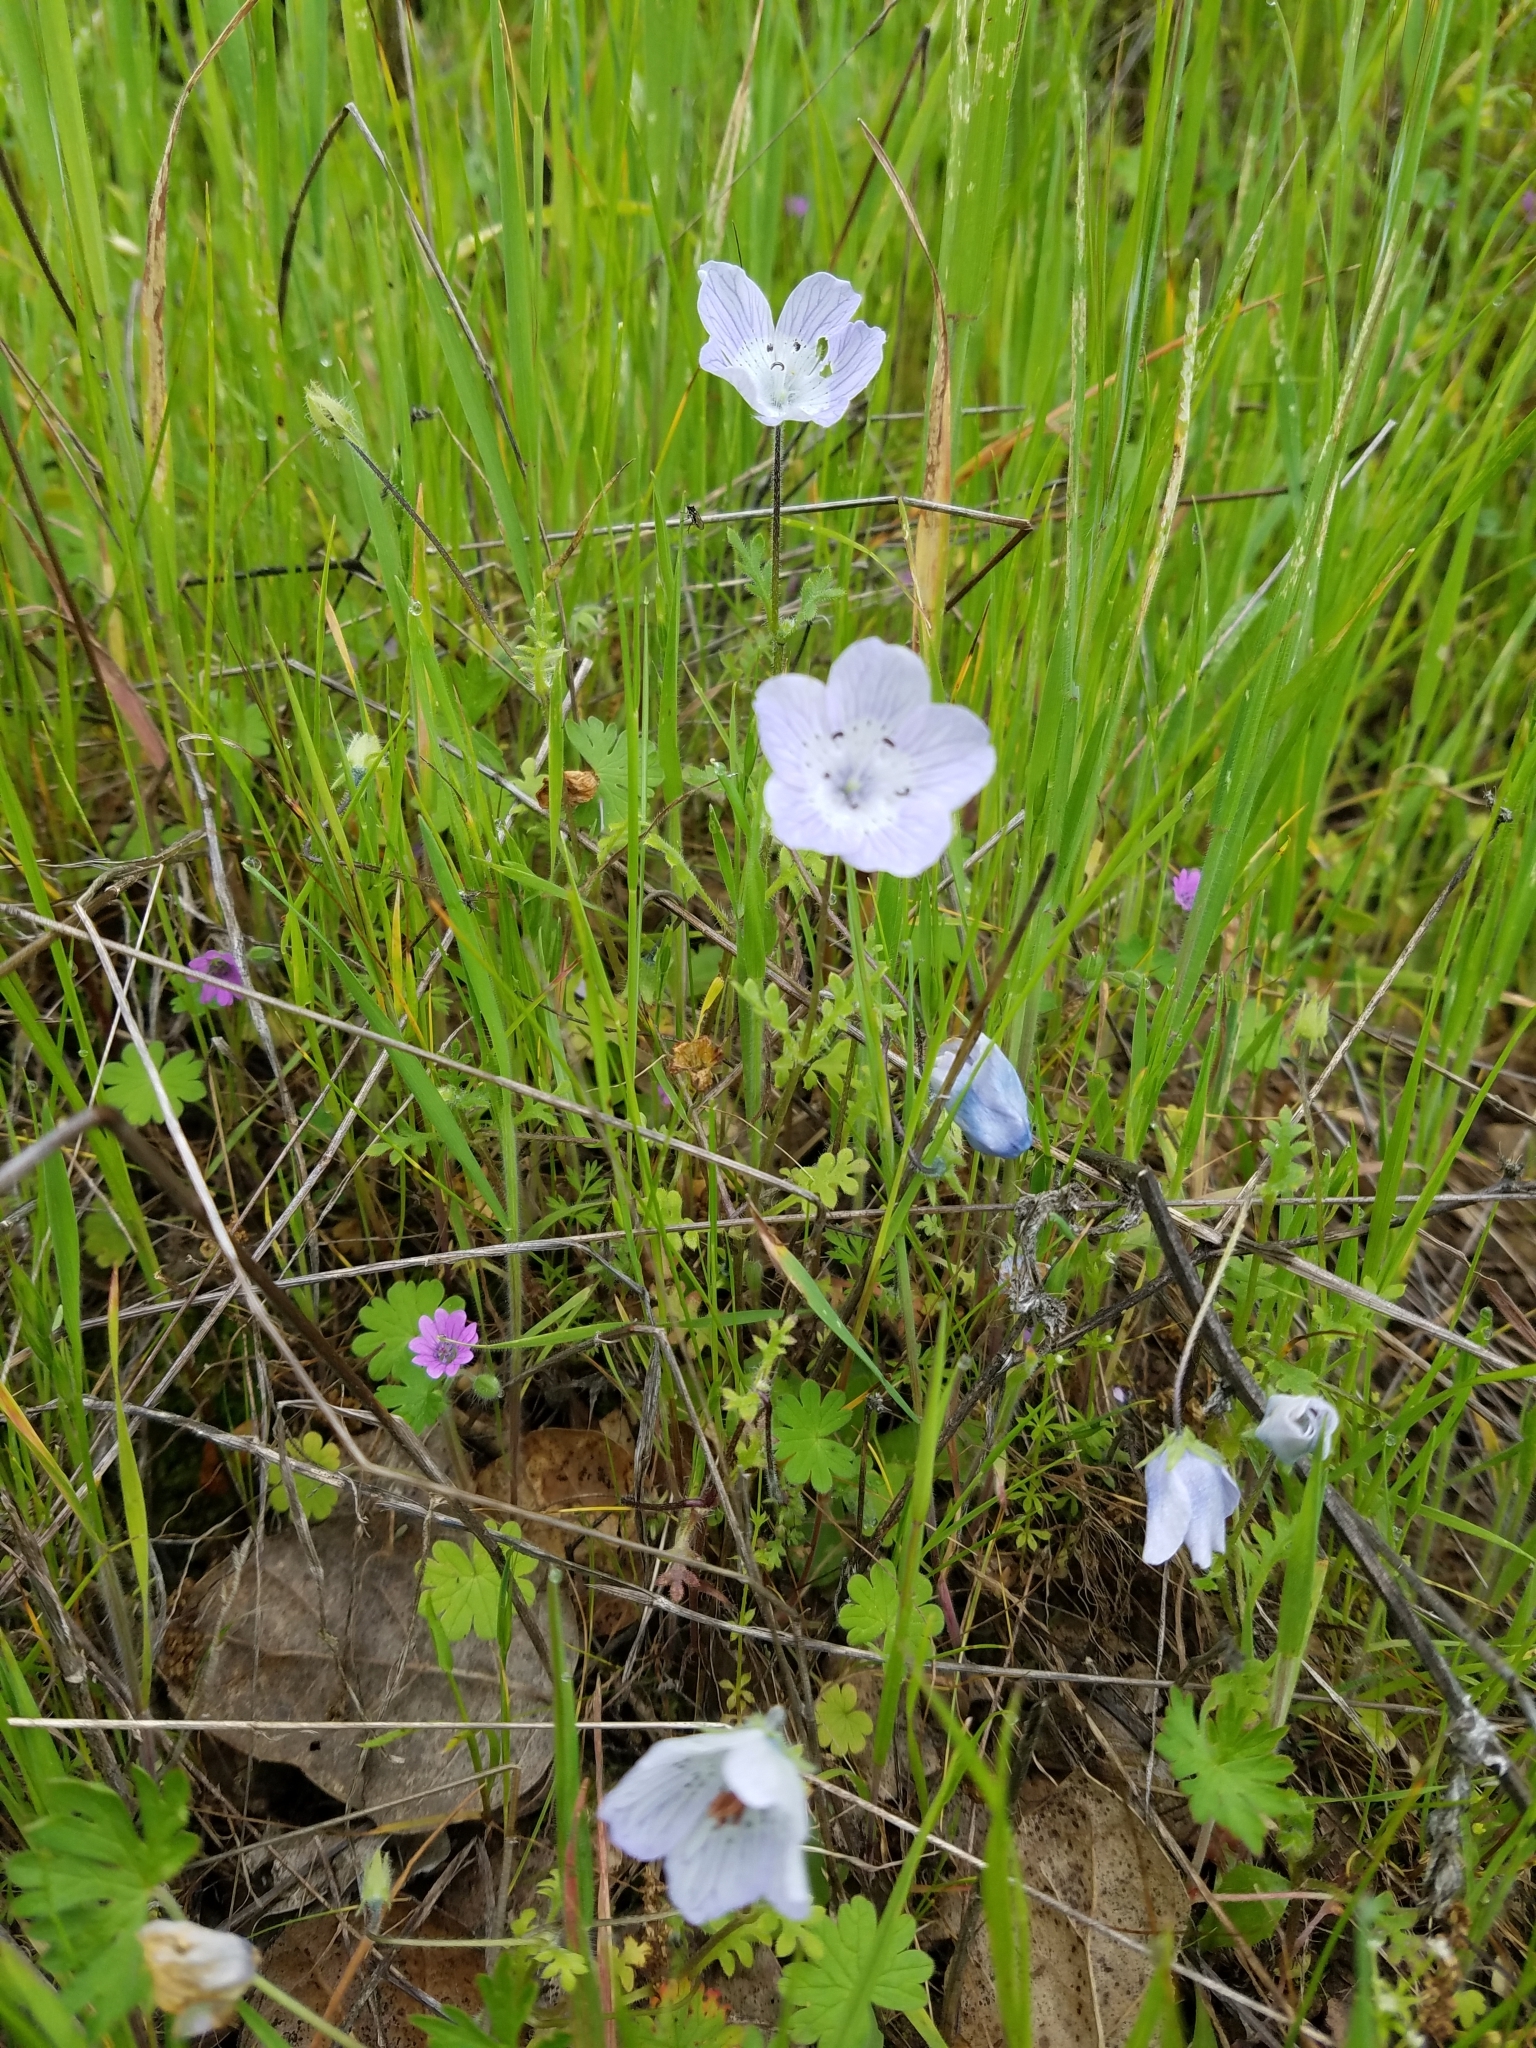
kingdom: Plantae
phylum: Tracheophyta
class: Magnoliopsida
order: Boraginales
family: Hydrophyllaceae
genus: Nemophila
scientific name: Nemophila menziesii
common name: Baby's-blue-eyes
